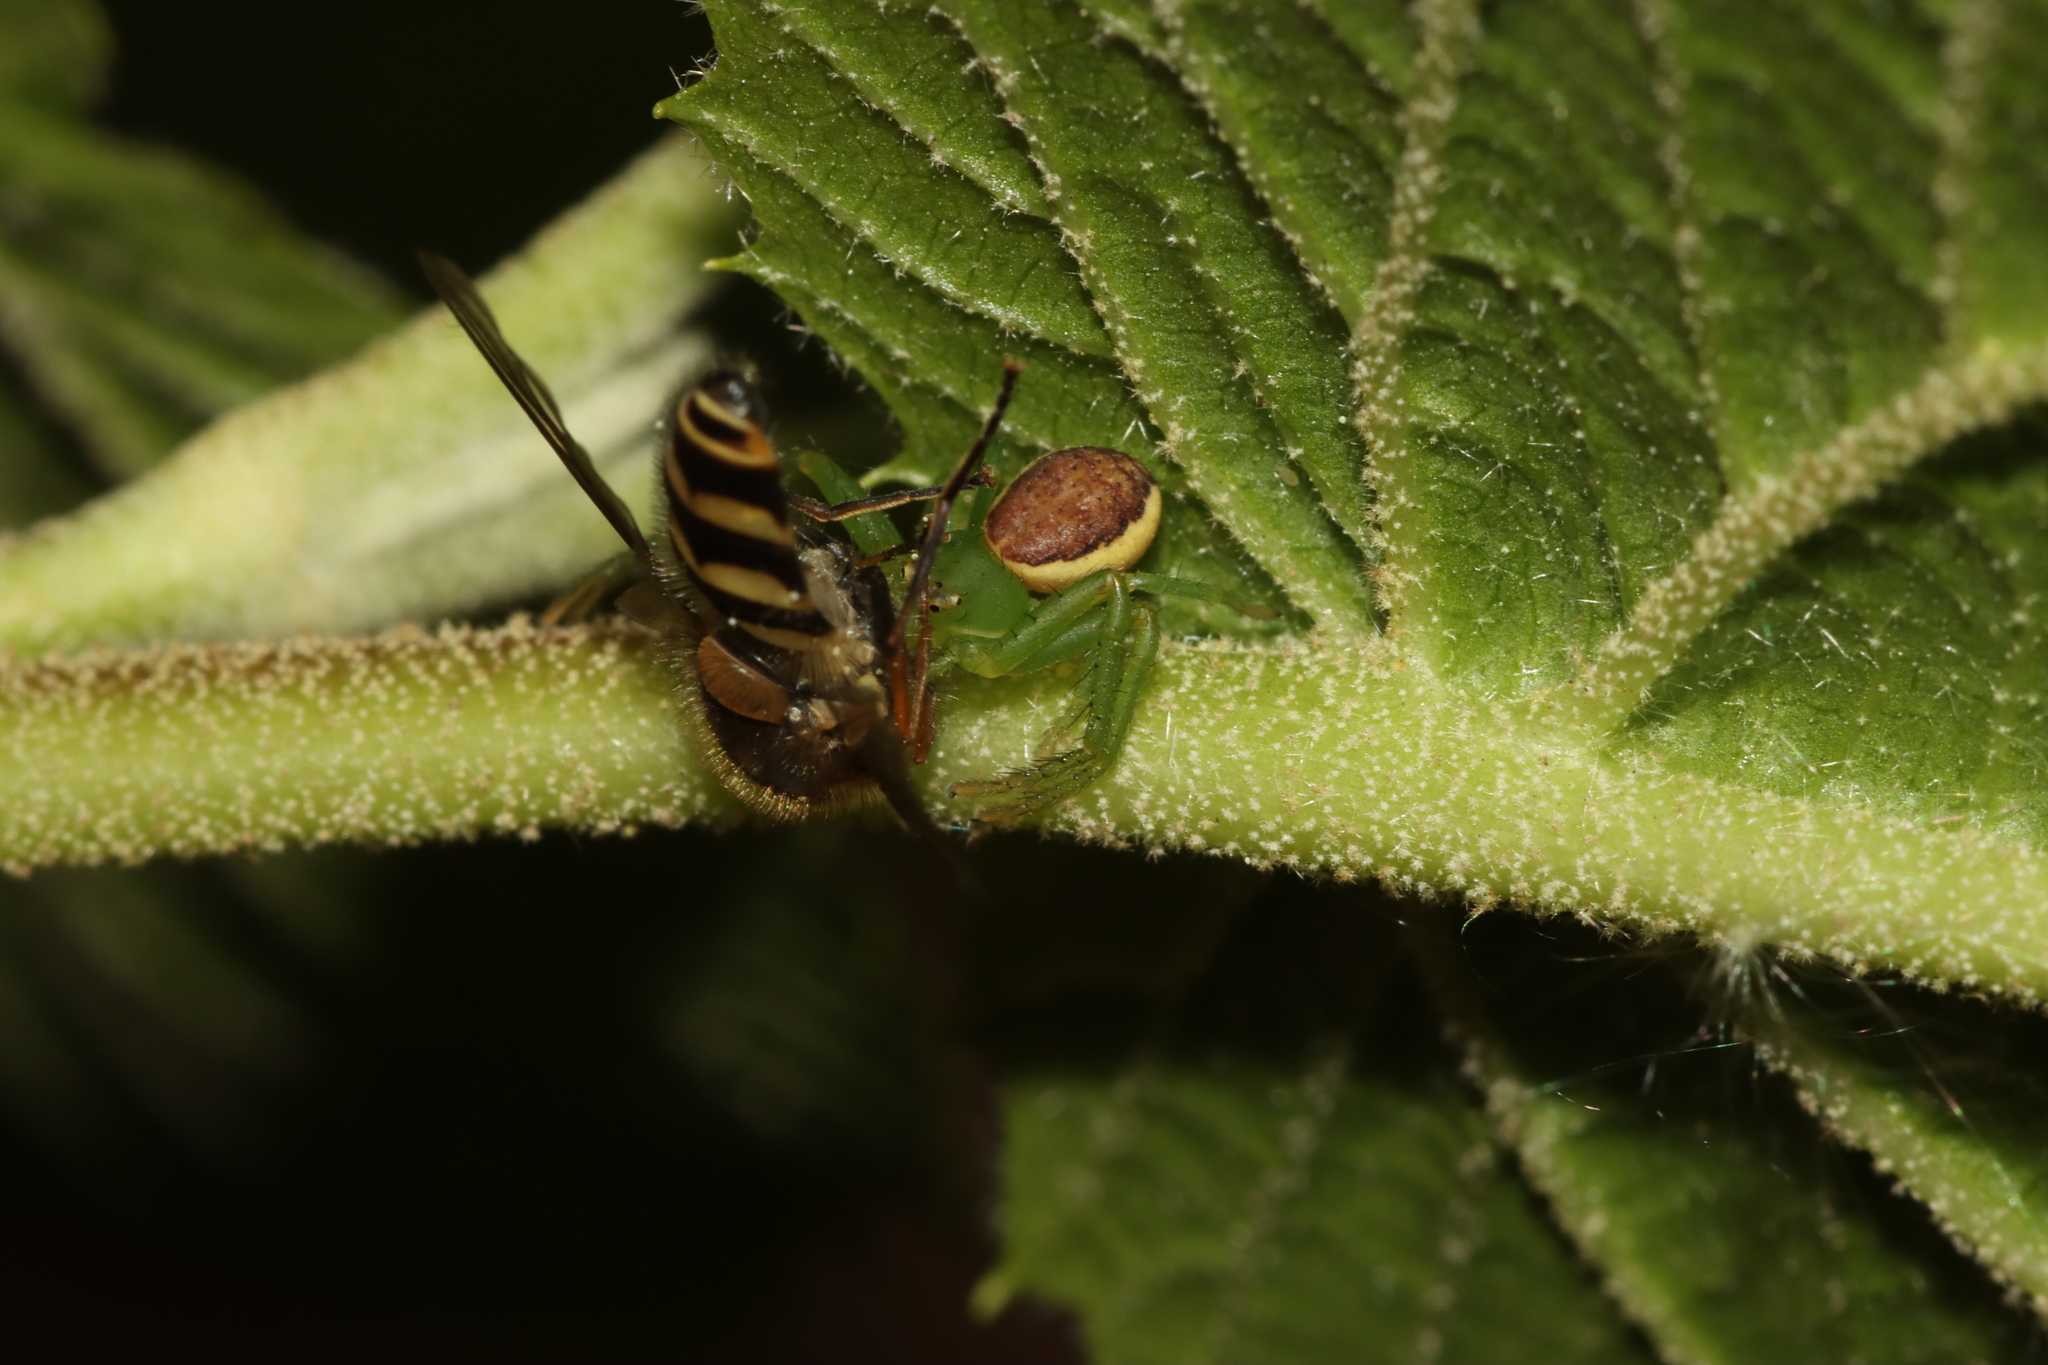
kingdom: Animalia
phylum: Arthropoda
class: Arachnida
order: Araneae
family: Thomisidae
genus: Diaea
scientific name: Diaea dorsata
